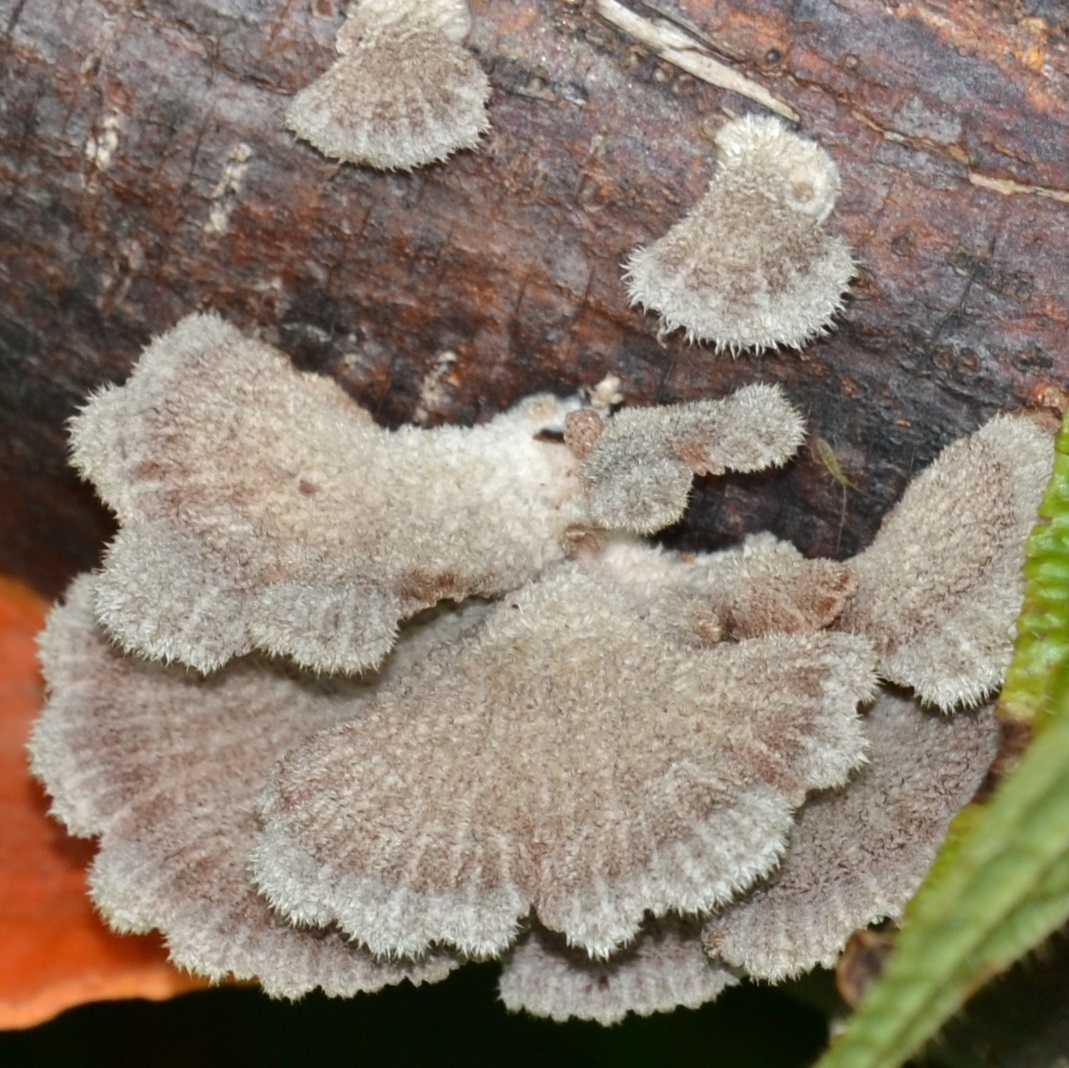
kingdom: Fungi
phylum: Basidiomycota
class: Agaricomycetes
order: Agaricales
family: Schizophyllaceae
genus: Schizophyllum
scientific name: Schizophyllum commune
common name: Common porecrust
